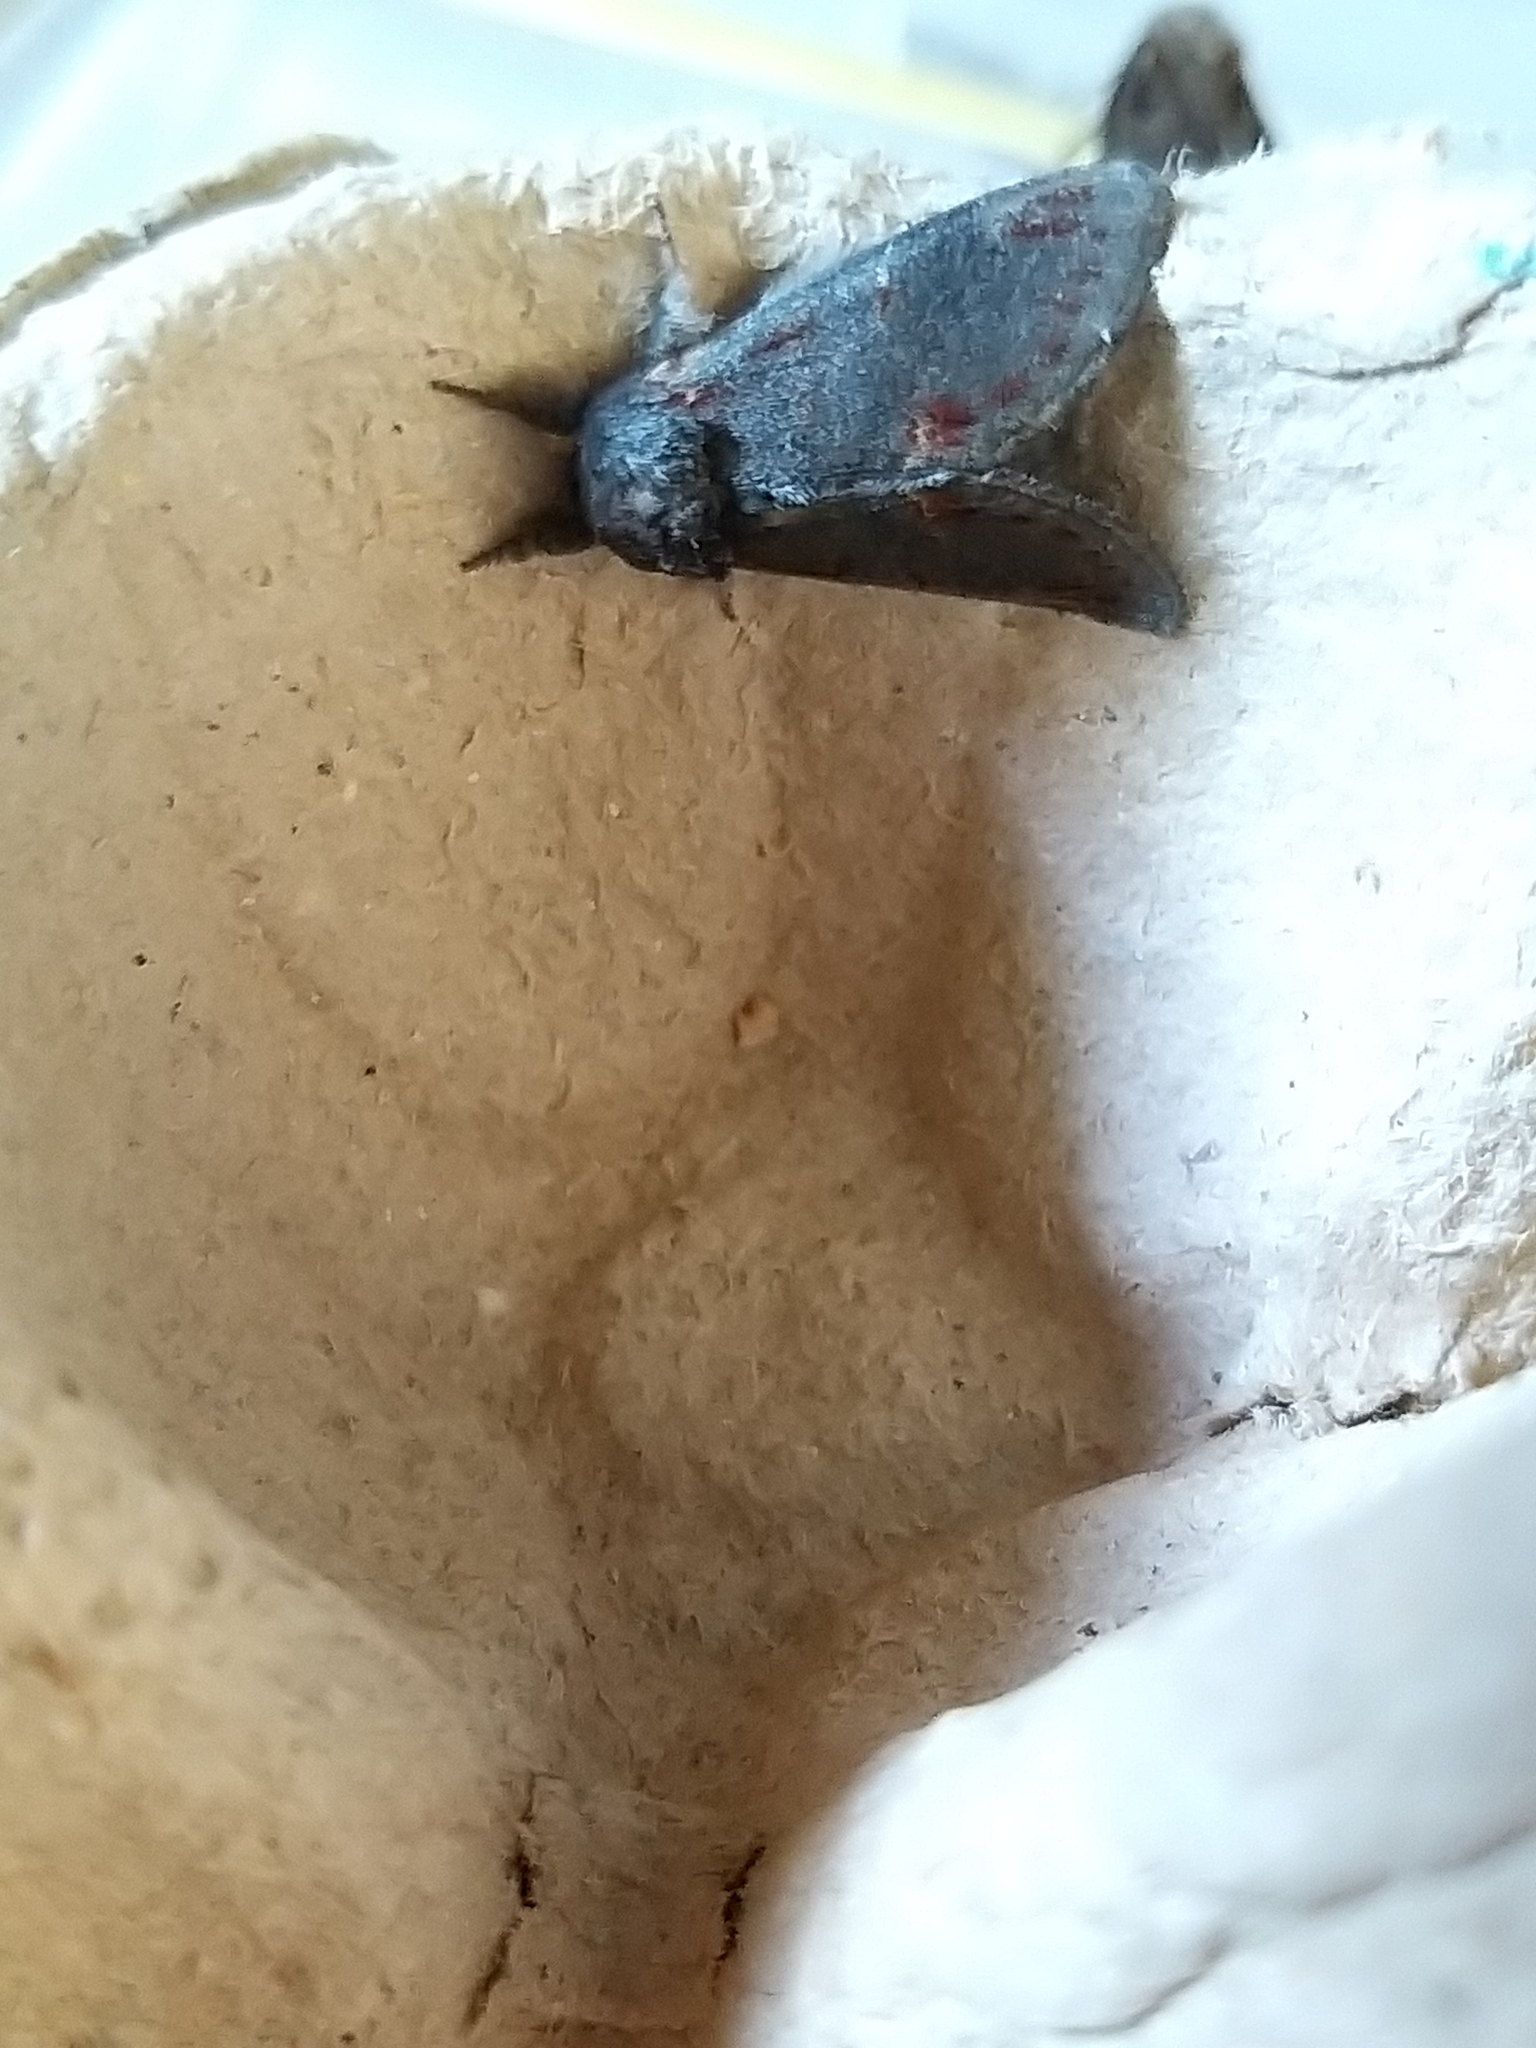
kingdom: Animalia
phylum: Arthropoda
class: Insecta
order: Lepidoptera
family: Notodontidae
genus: Notodonta
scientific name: Notodonta dromedarius
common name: Iron prominent
